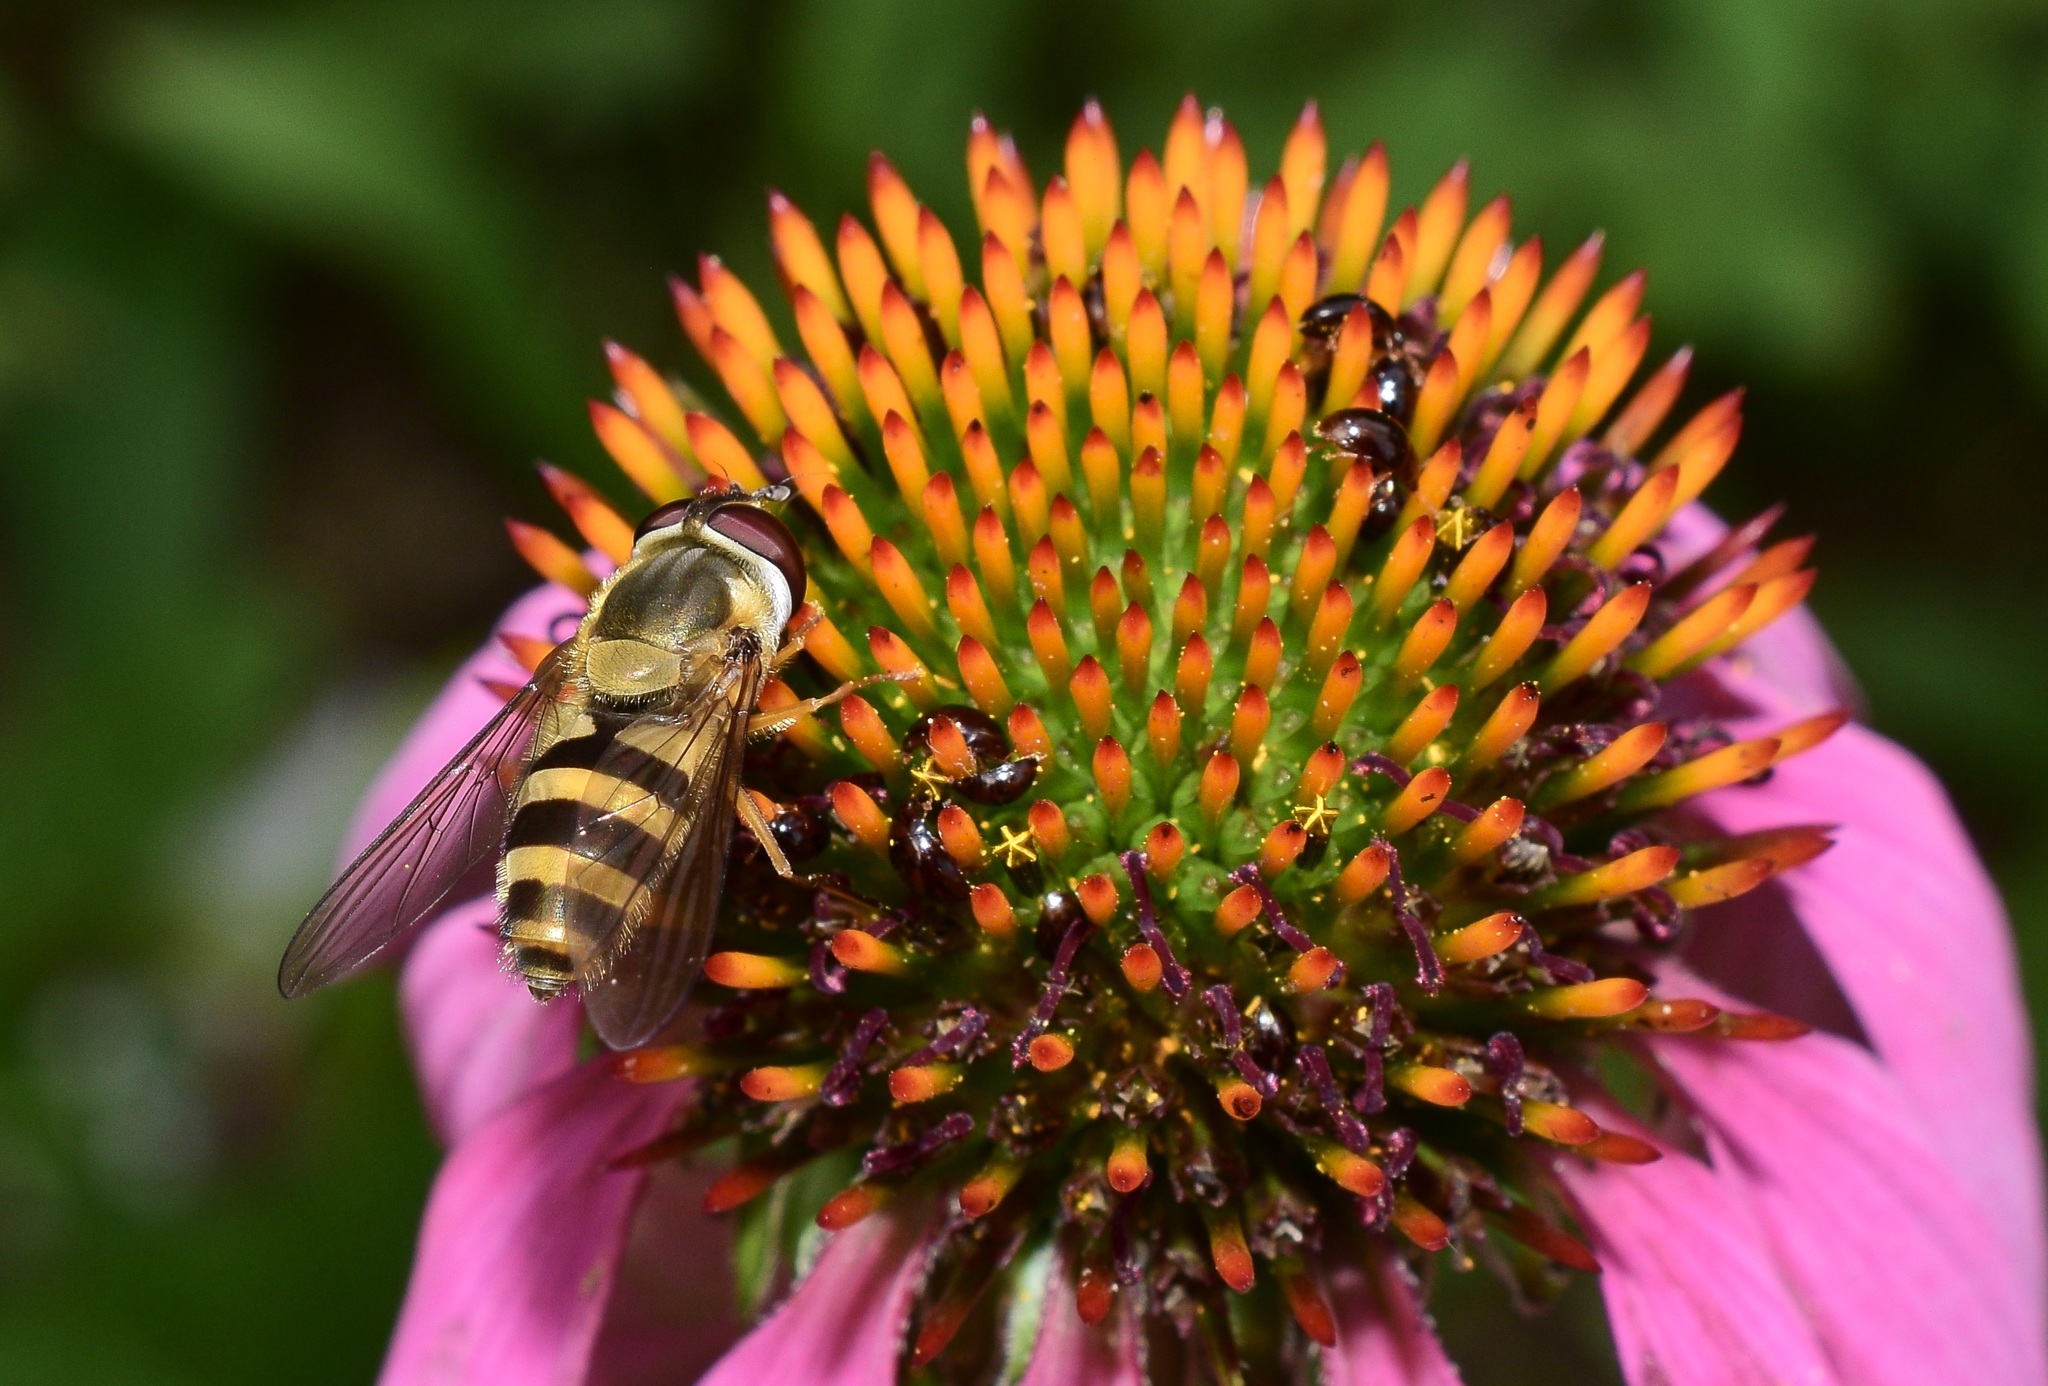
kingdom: Animalia
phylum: Arthropoda
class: Insecta
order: Diptera
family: Syrphidae
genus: Epistrophe
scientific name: Epistrophe grossulariae
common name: Black-horned smoothtail
